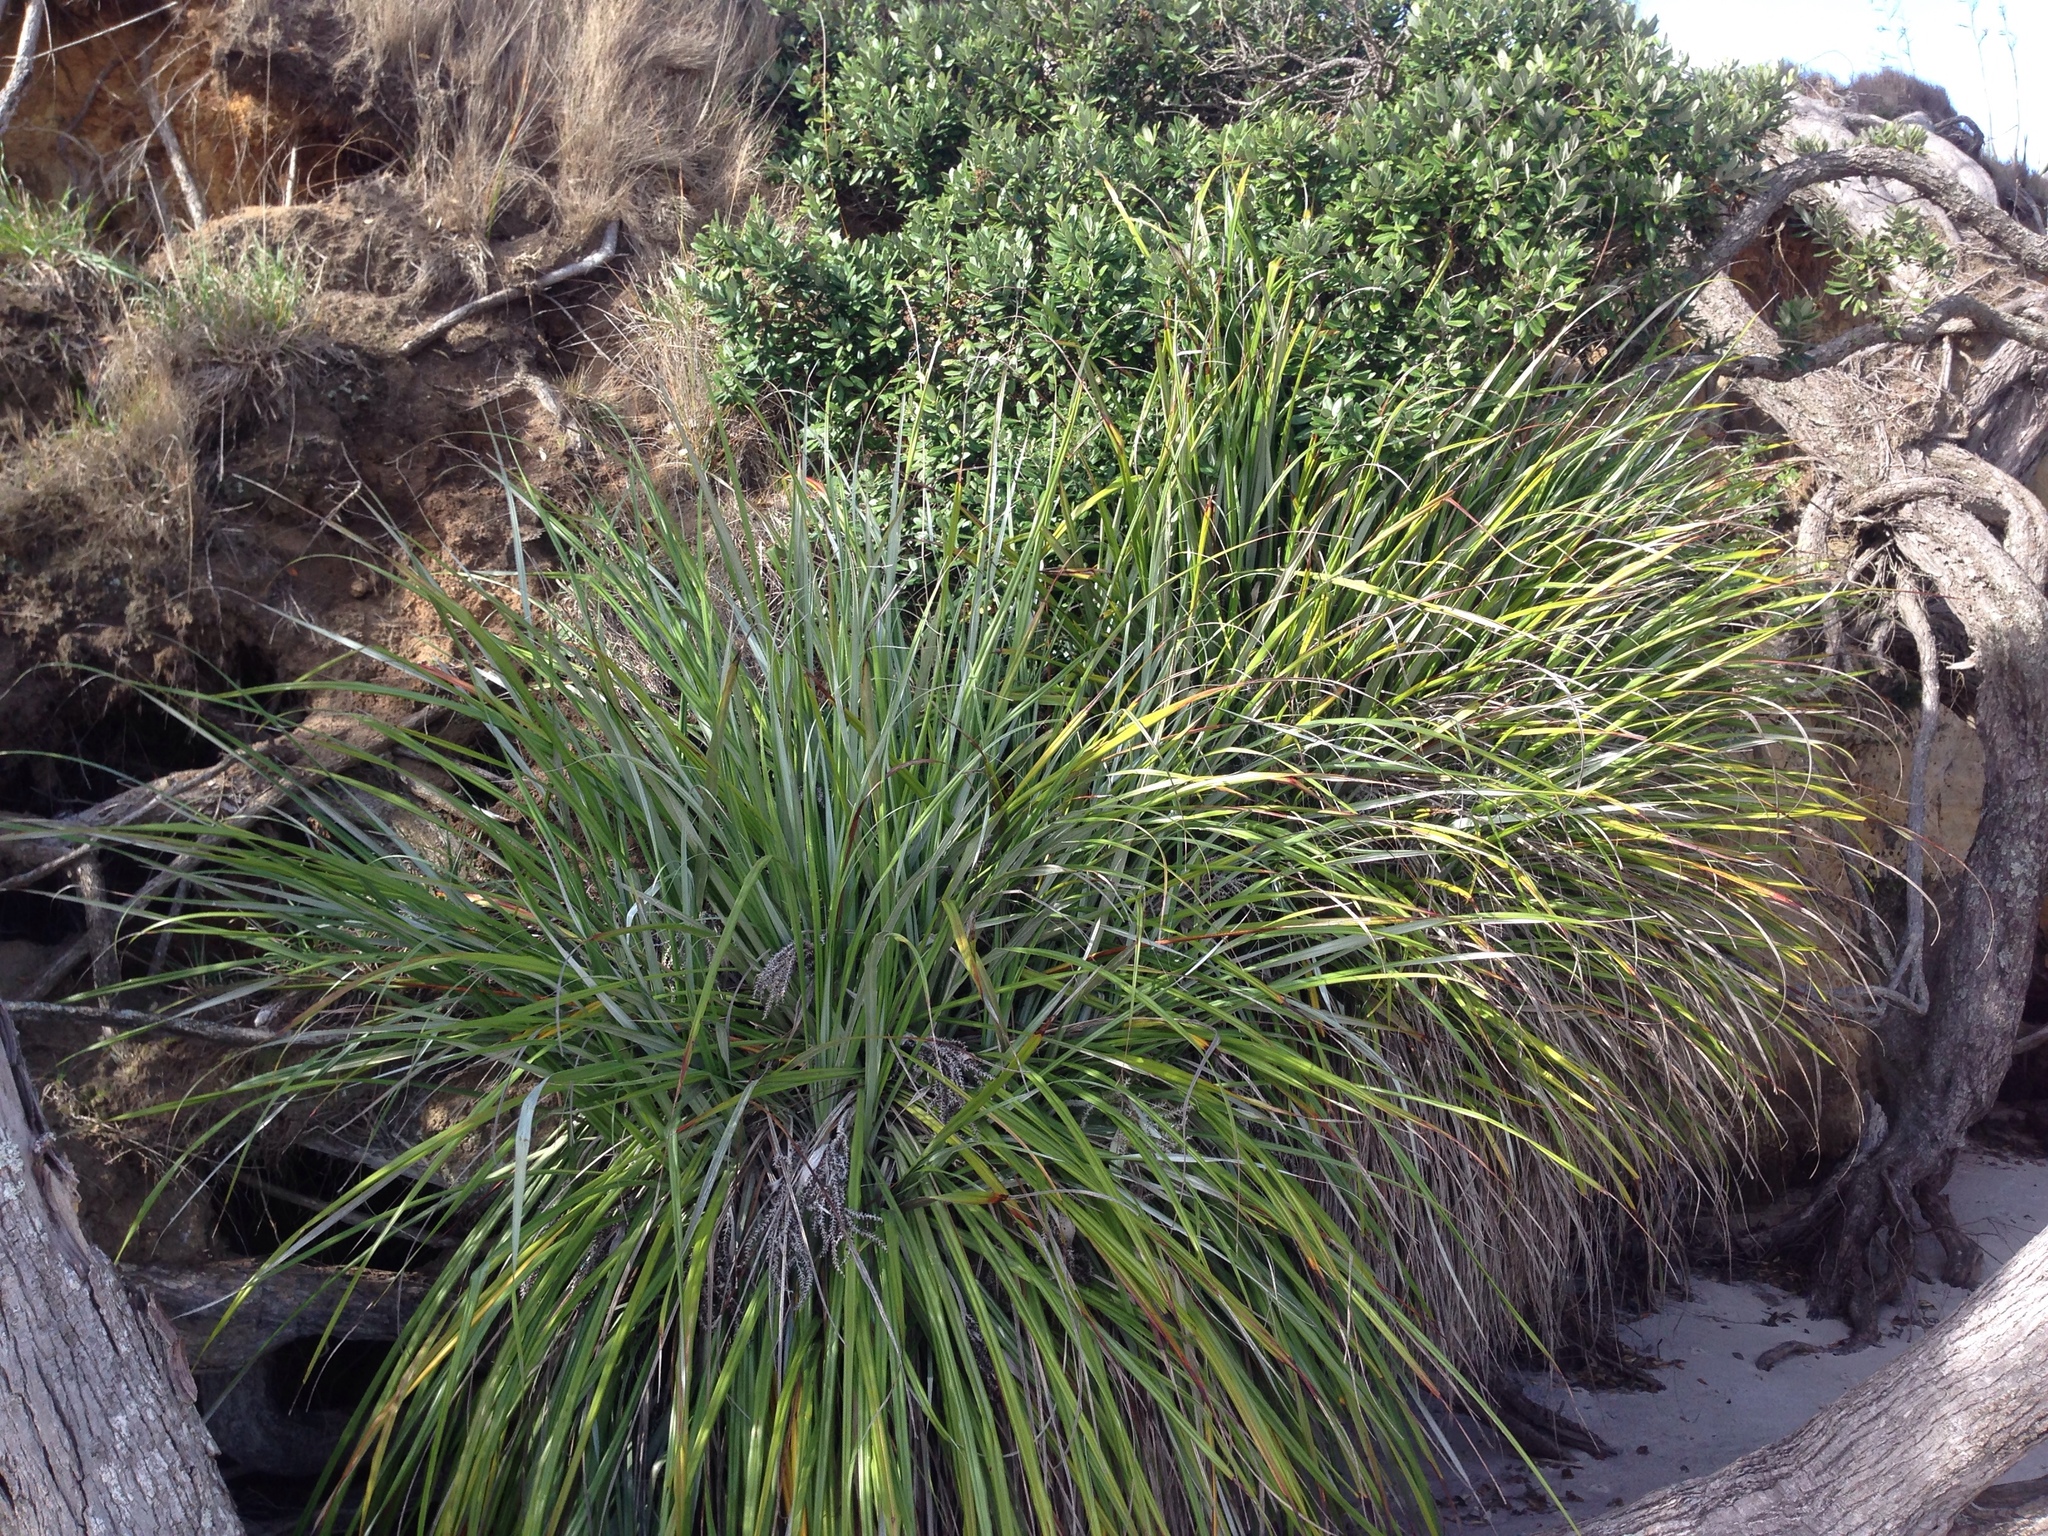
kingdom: Plantae
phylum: Tracheophyta
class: Liliopsida
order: Asparagales
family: Asteliaceae
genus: Astelia
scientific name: Astelia banksii
